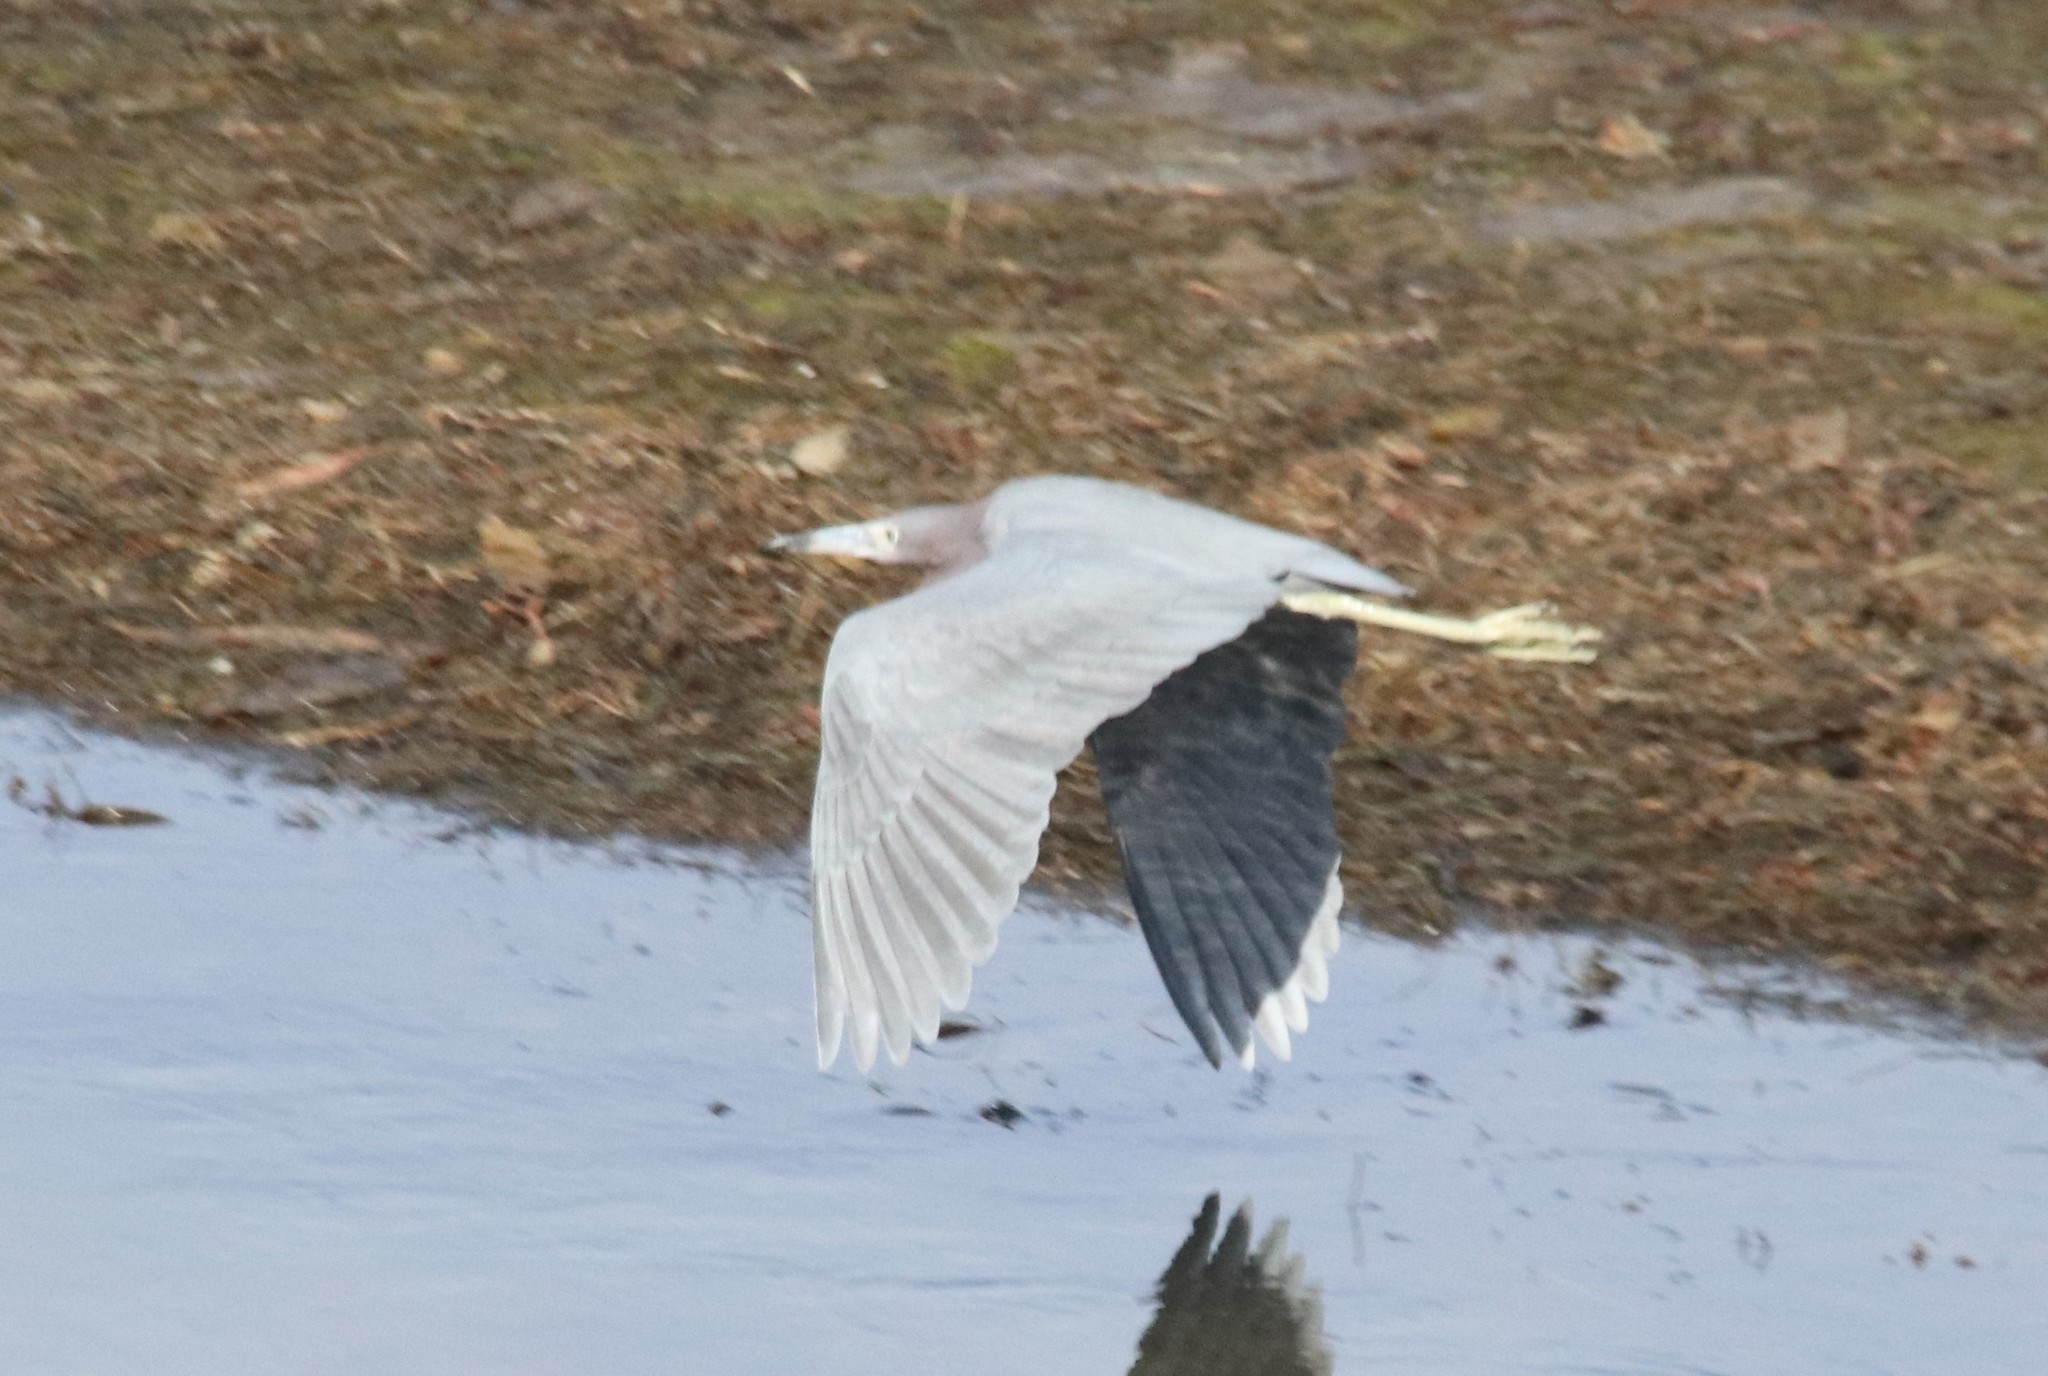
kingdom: Animalia
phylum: Chordata
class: Aves
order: Pelecaniformes
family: Ardeidae
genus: Egretta
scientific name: Egretta caerulea
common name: Little blue heron
